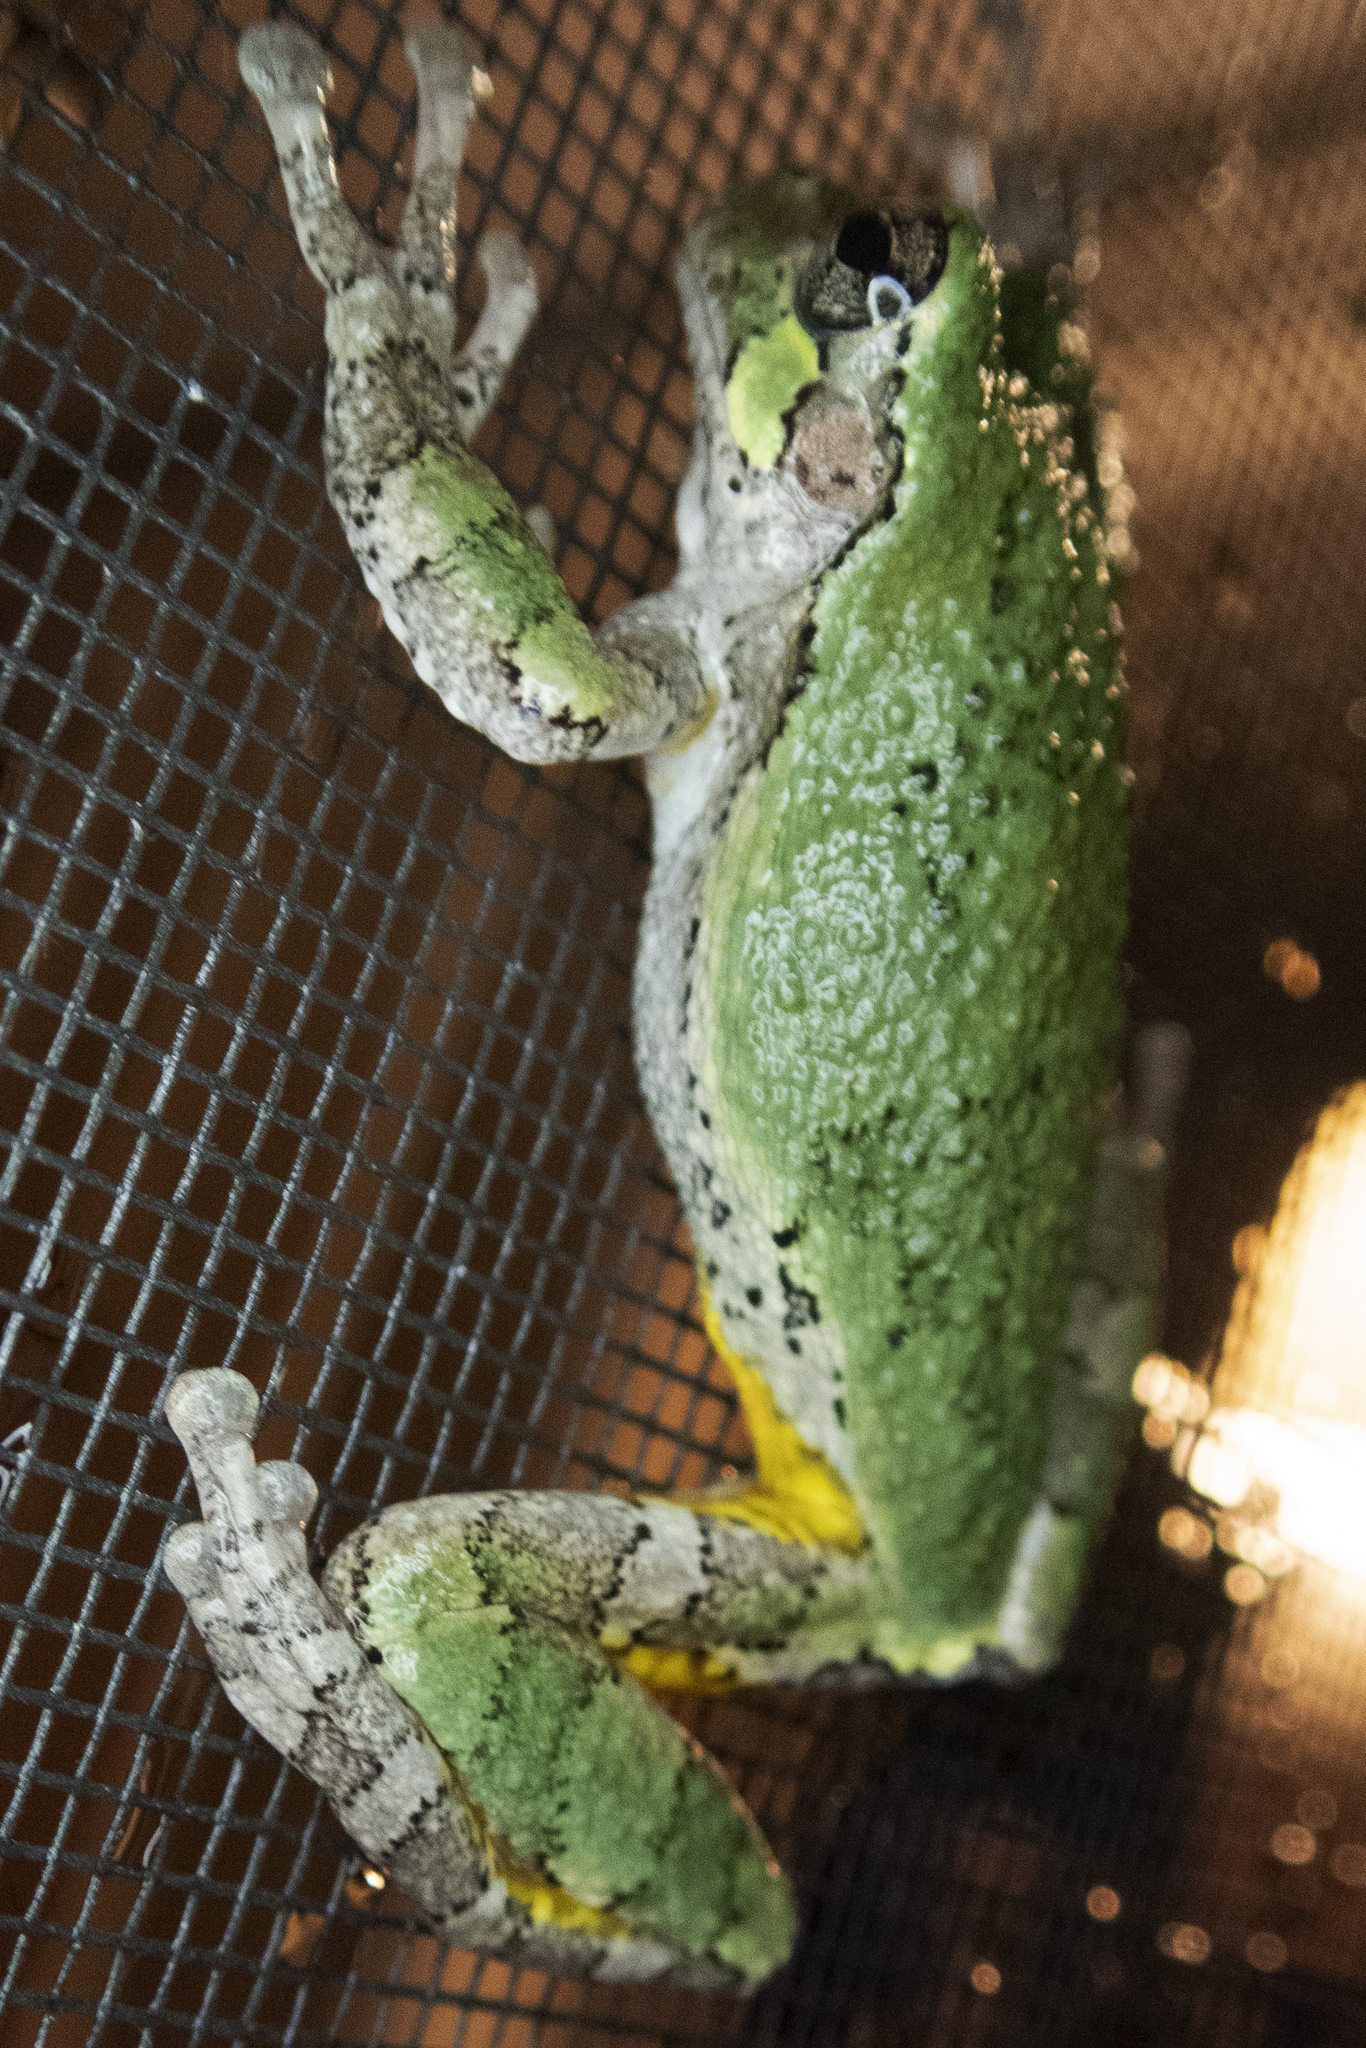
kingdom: Animalia
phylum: Chordata
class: Amphibia
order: Anura
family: Hylidae
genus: Dryophytes
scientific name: Dryophytes versicolor
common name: Gray treefrog
